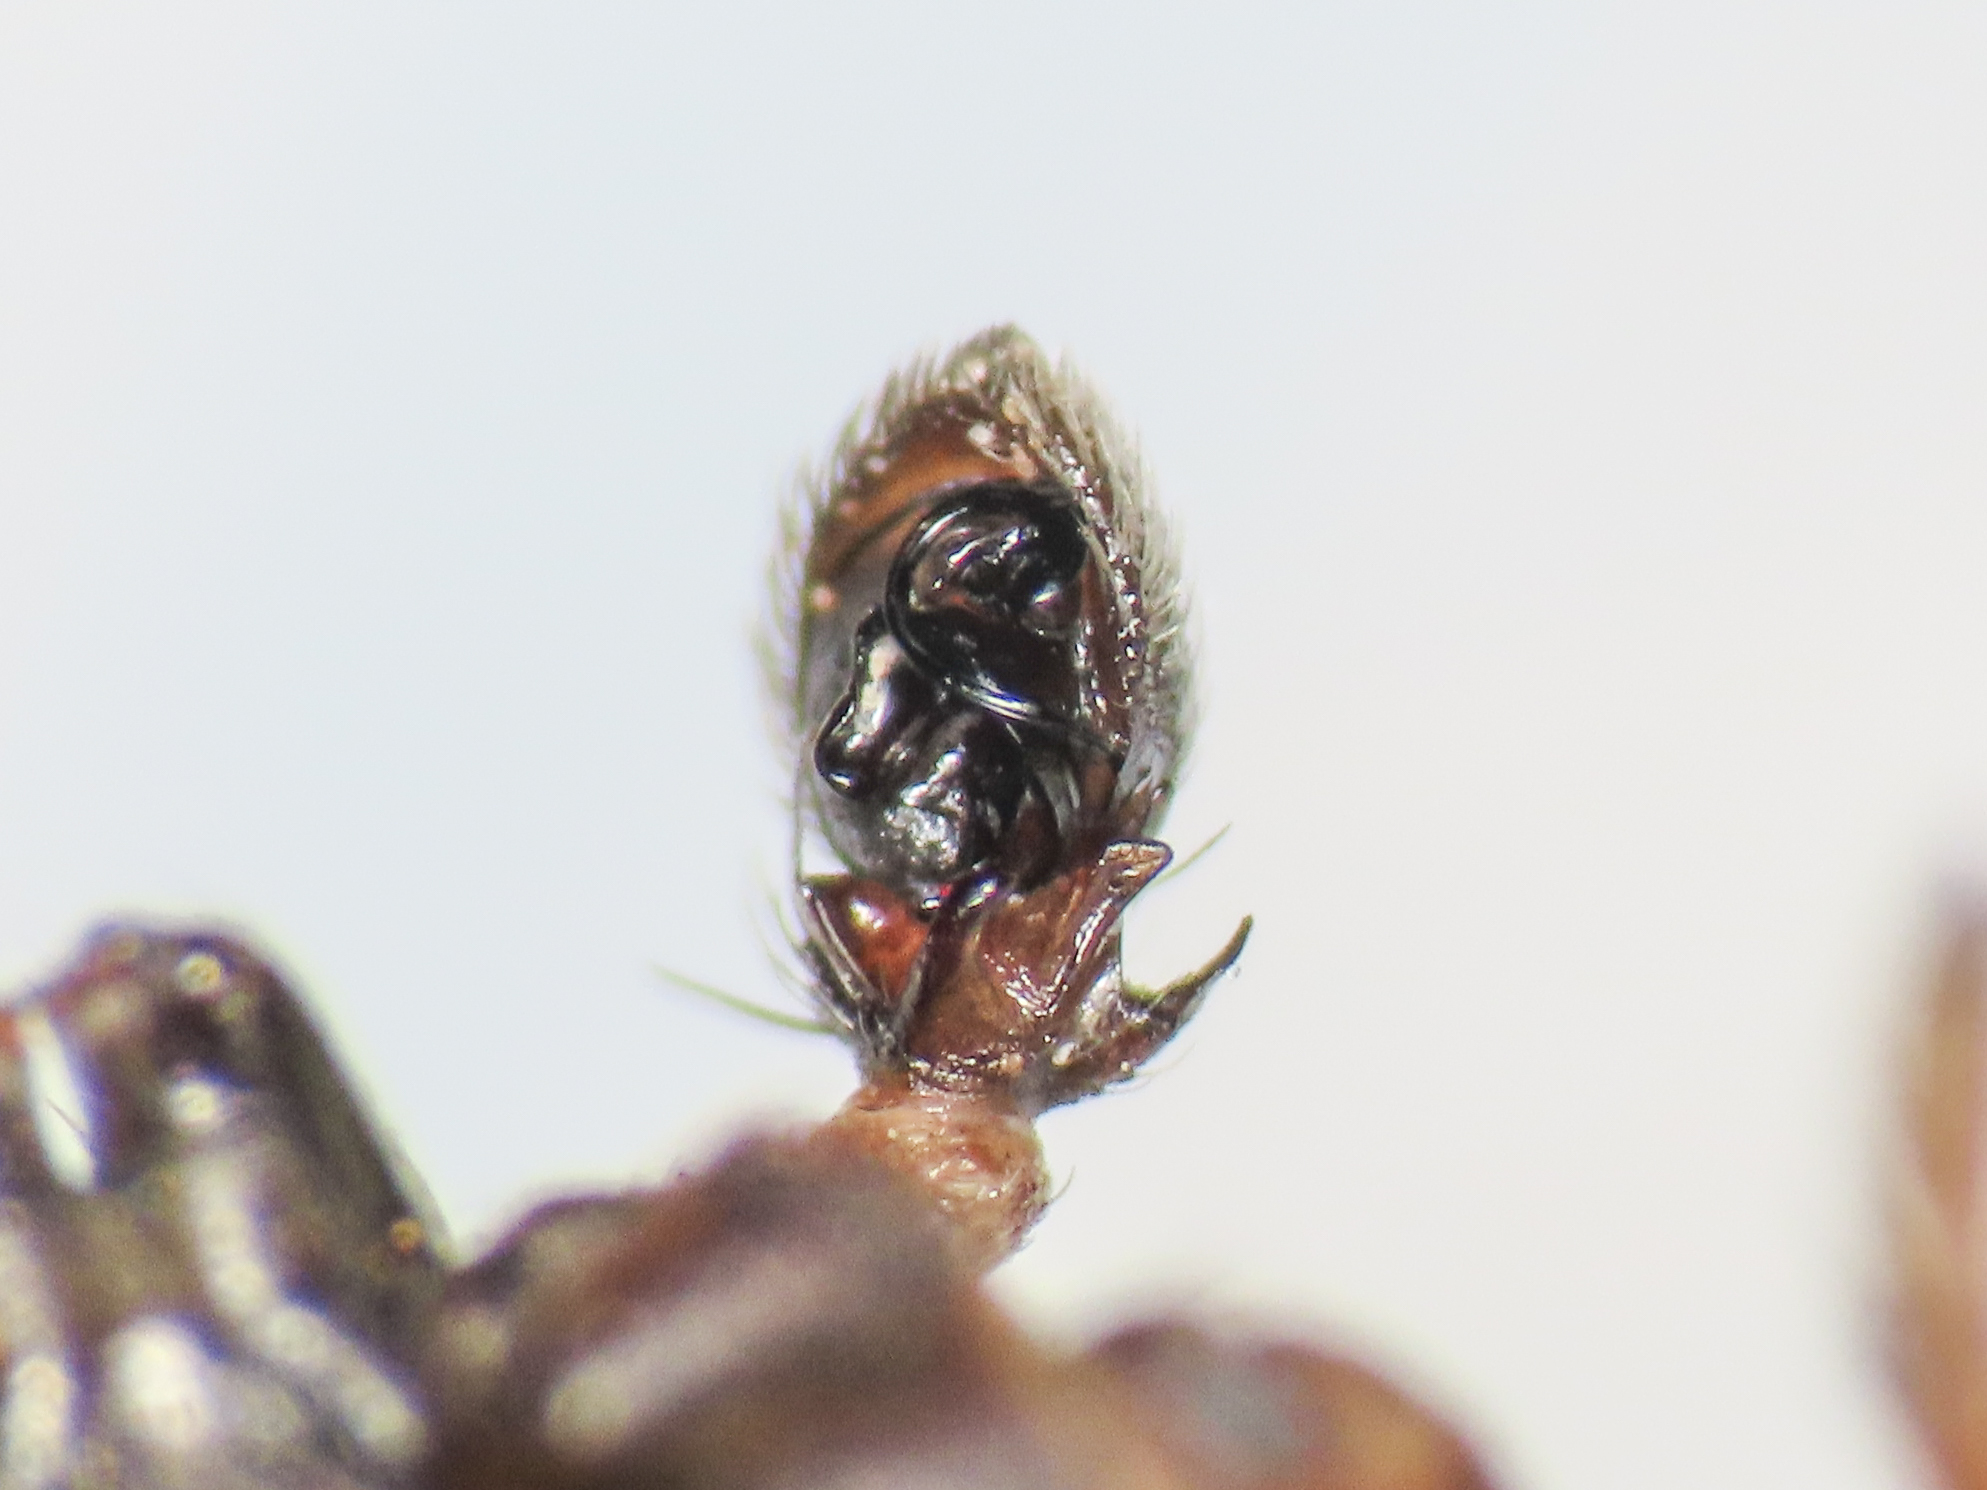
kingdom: Animalia
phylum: Arthropoda
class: Arachnida
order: Araneae
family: Thomisidae
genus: Ozyptila
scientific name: Ozyptila atomaria
